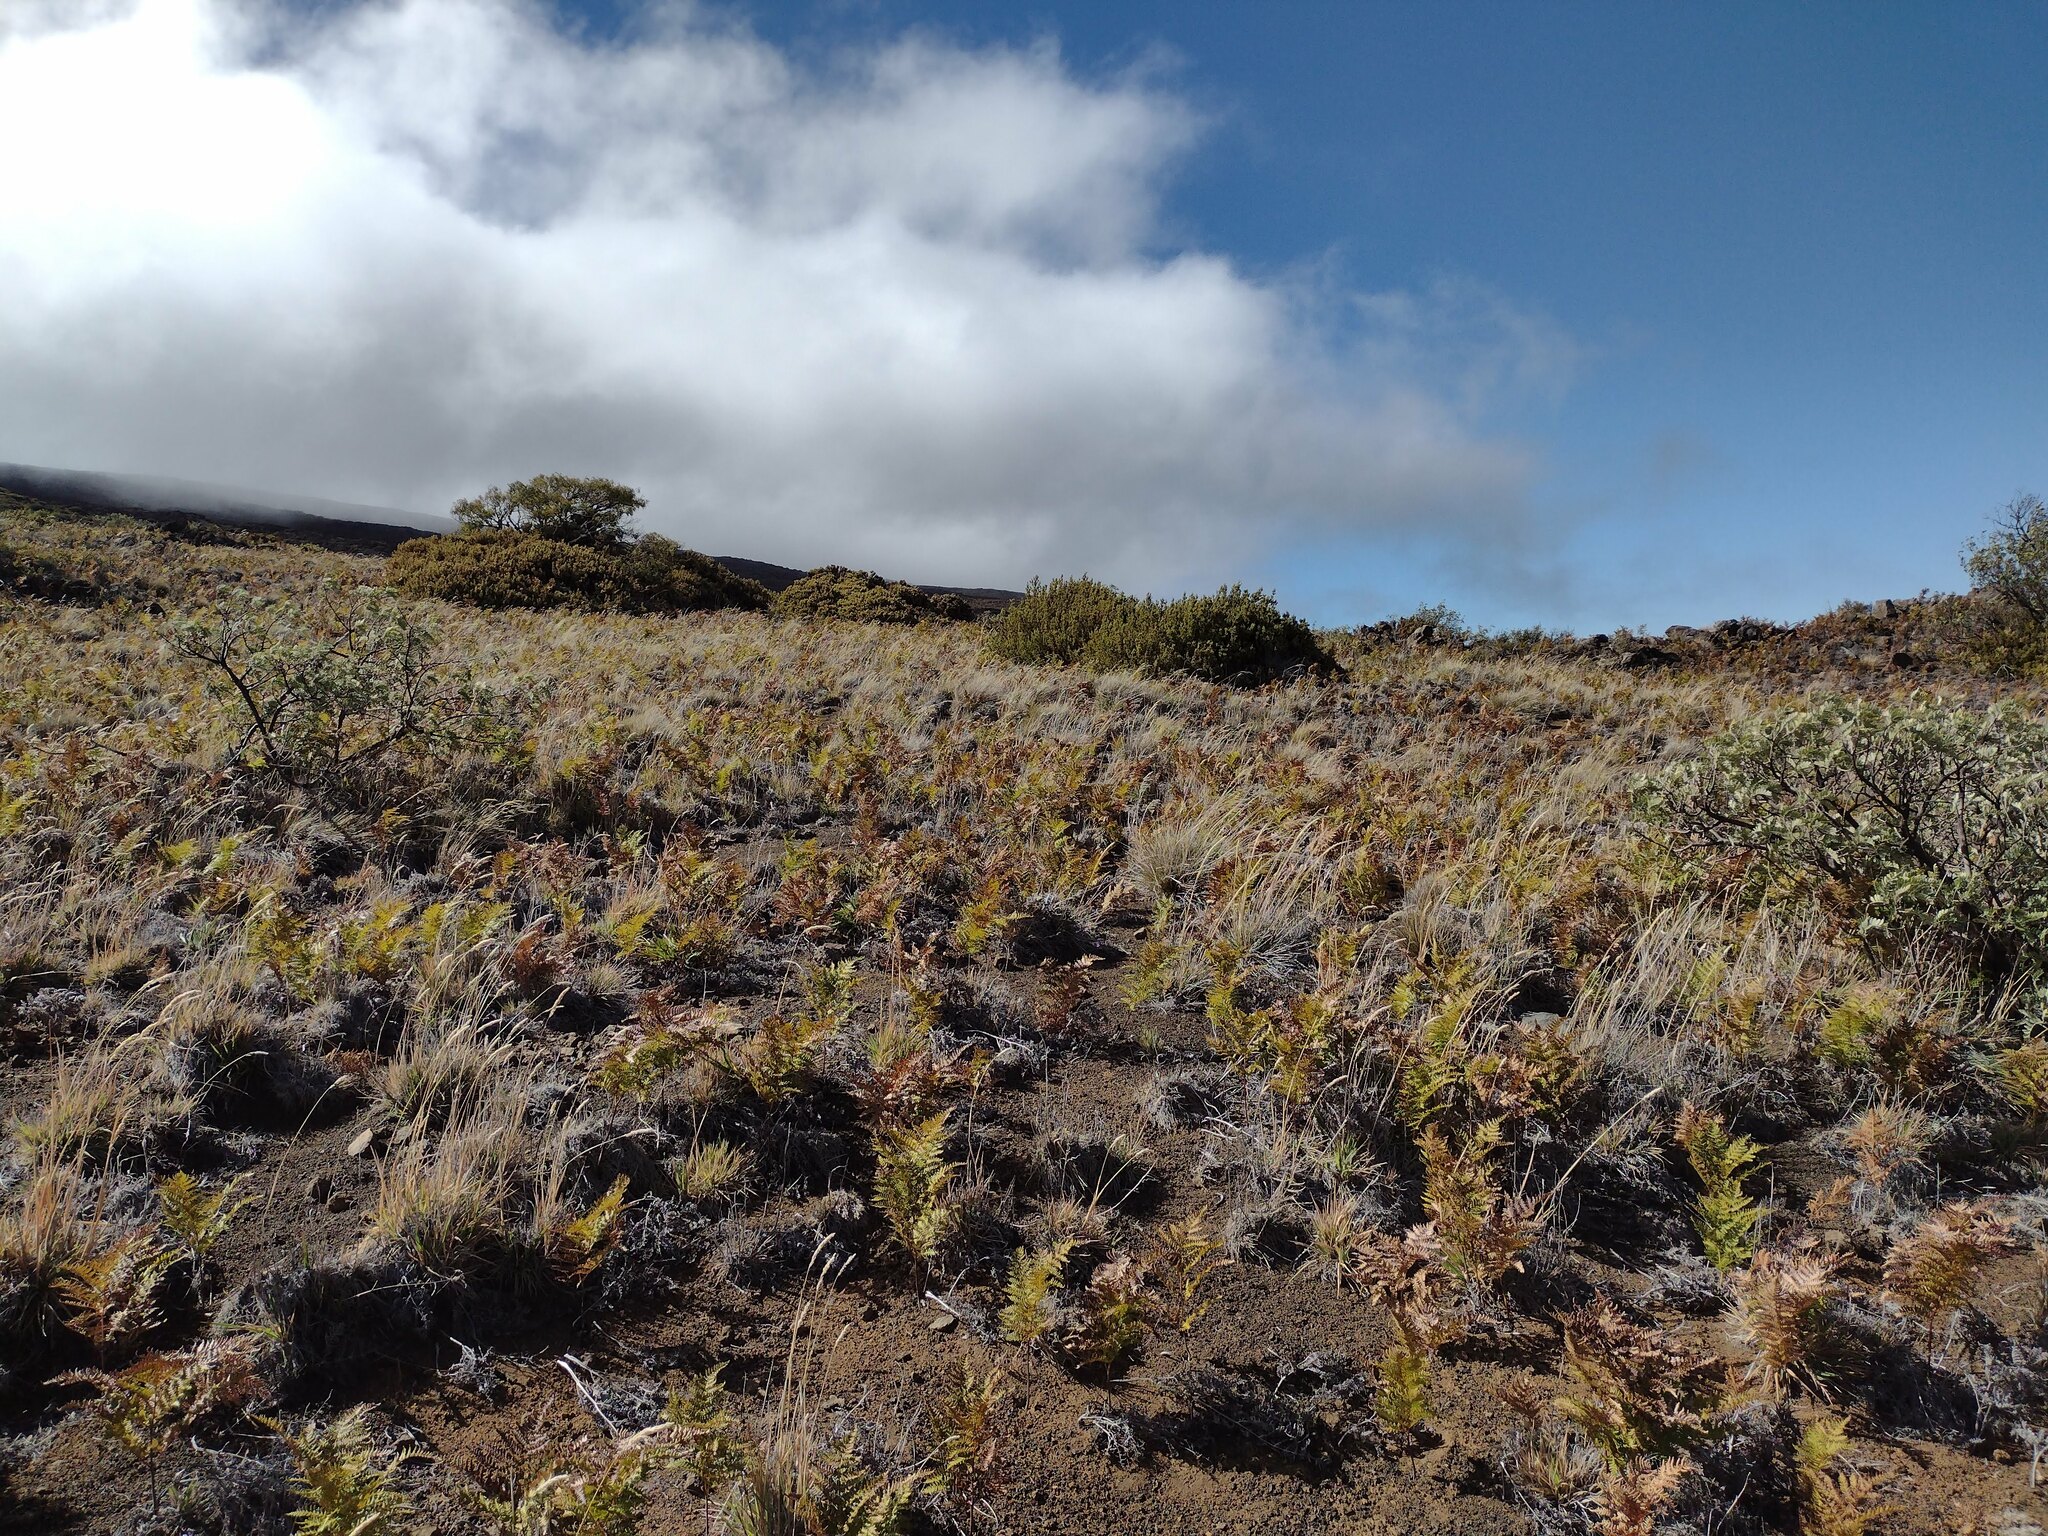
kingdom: Plantae
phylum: Tracheophyta
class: Polypodiopsida
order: Polypodiales
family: Dennstaedtiaceae
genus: Pteridium
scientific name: Pteridium aquilinum
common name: Bracken
